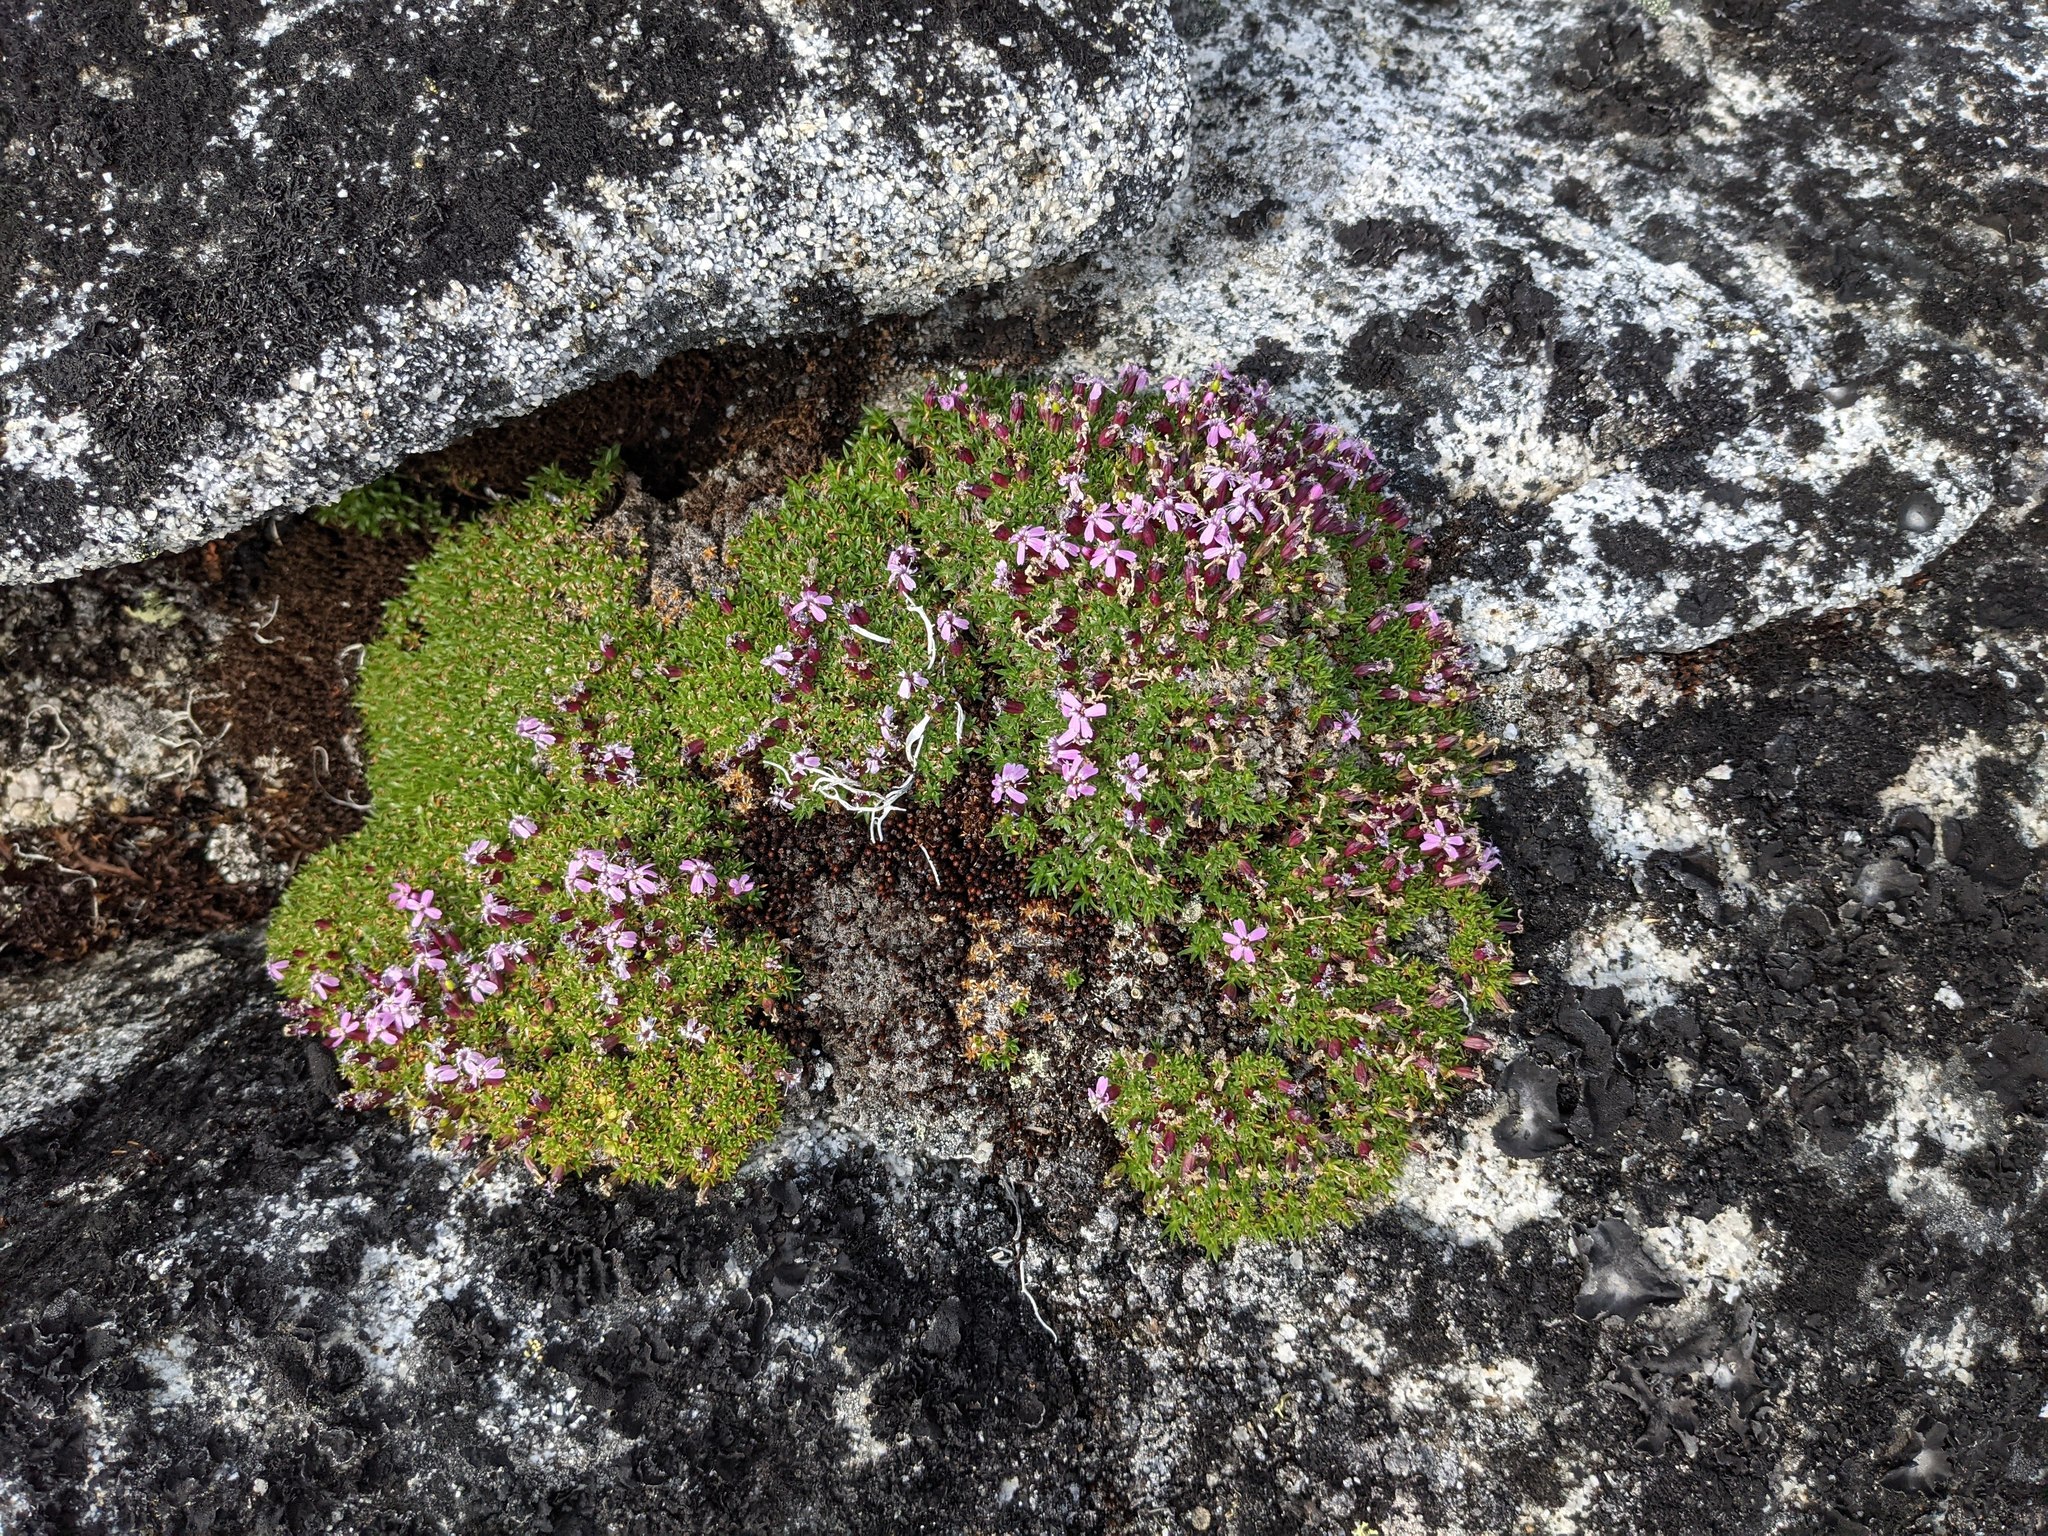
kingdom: Plantae
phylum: Tracheophyta
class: Magnoliopsida
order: Caryophyllales
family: Caryophyllaceae
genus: Silene
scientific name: Silene acaulis
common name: Moss campion
